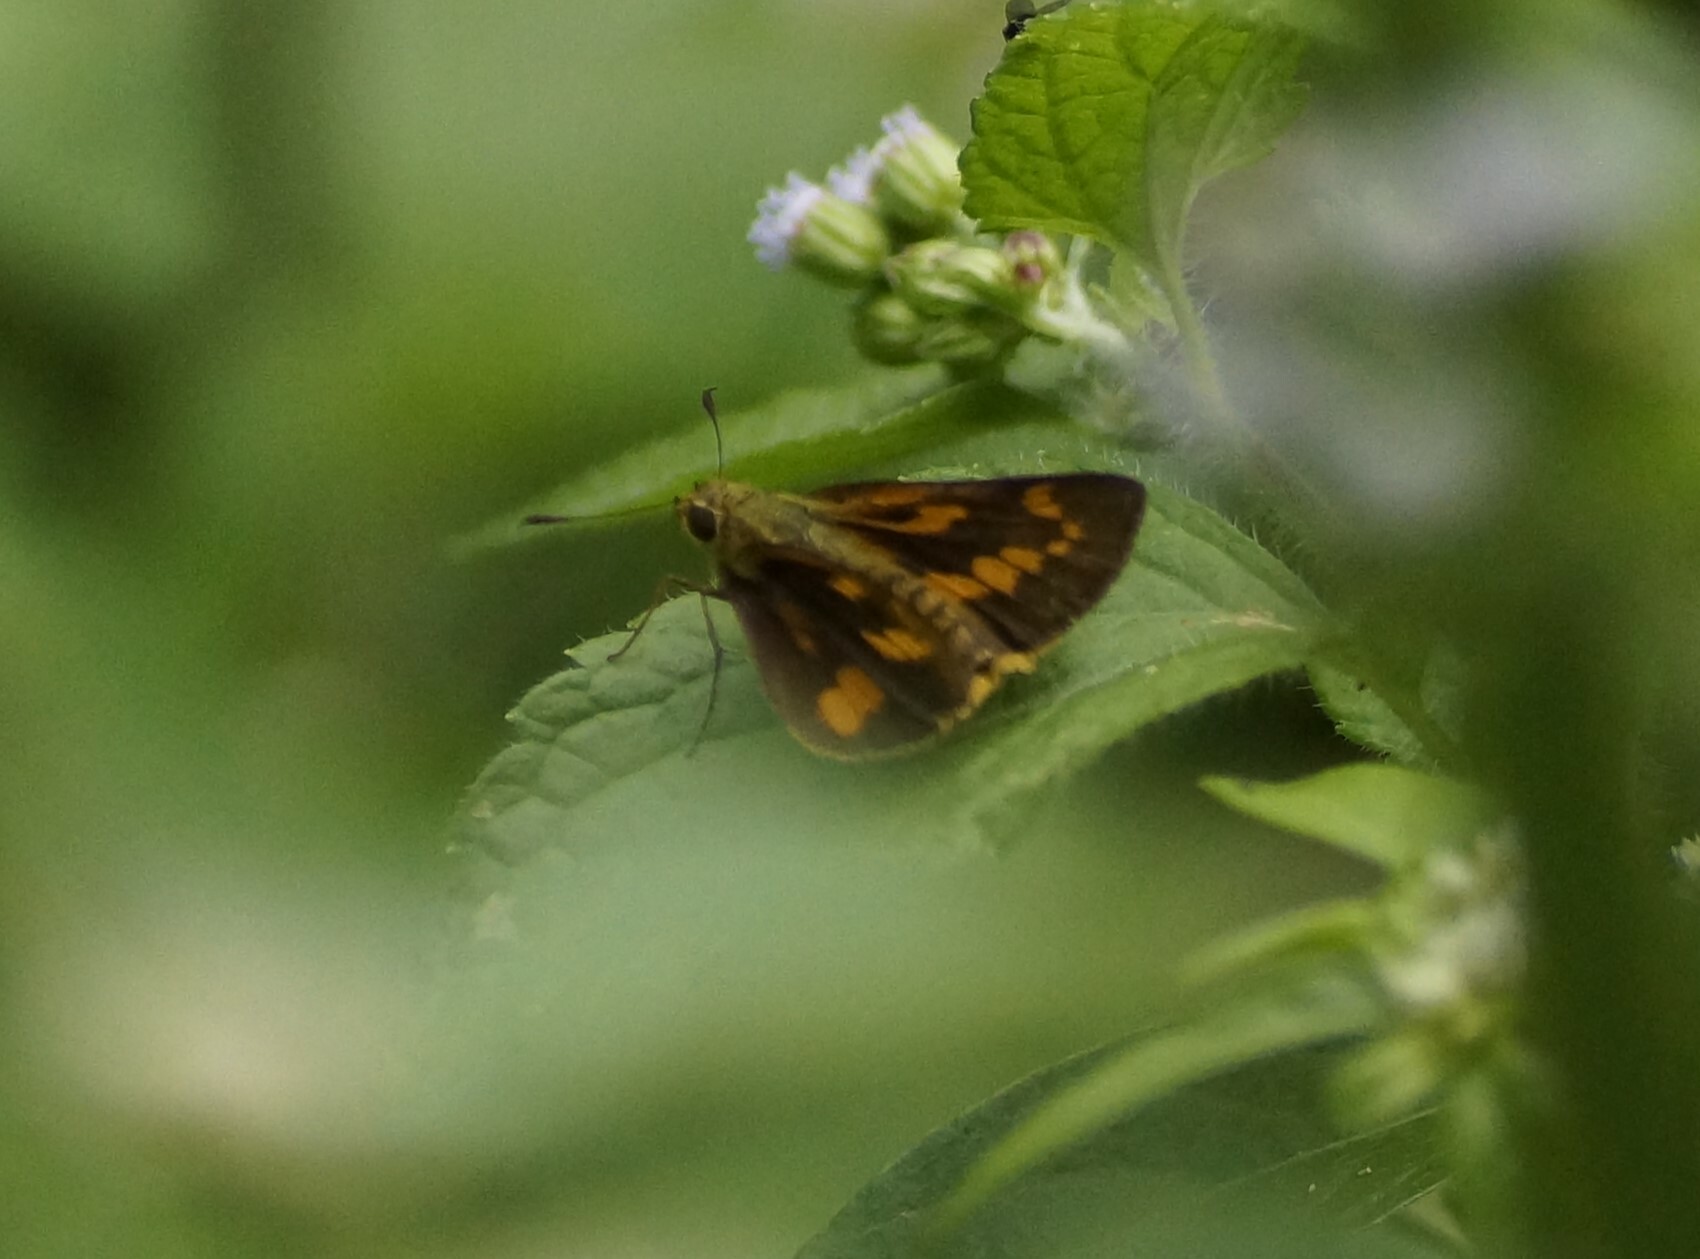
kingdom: Animalia
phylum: Arthropoda
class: Insecta
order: Lepidoptera
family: Hesperiidae
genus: Telicota
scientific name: Telicota paceka
